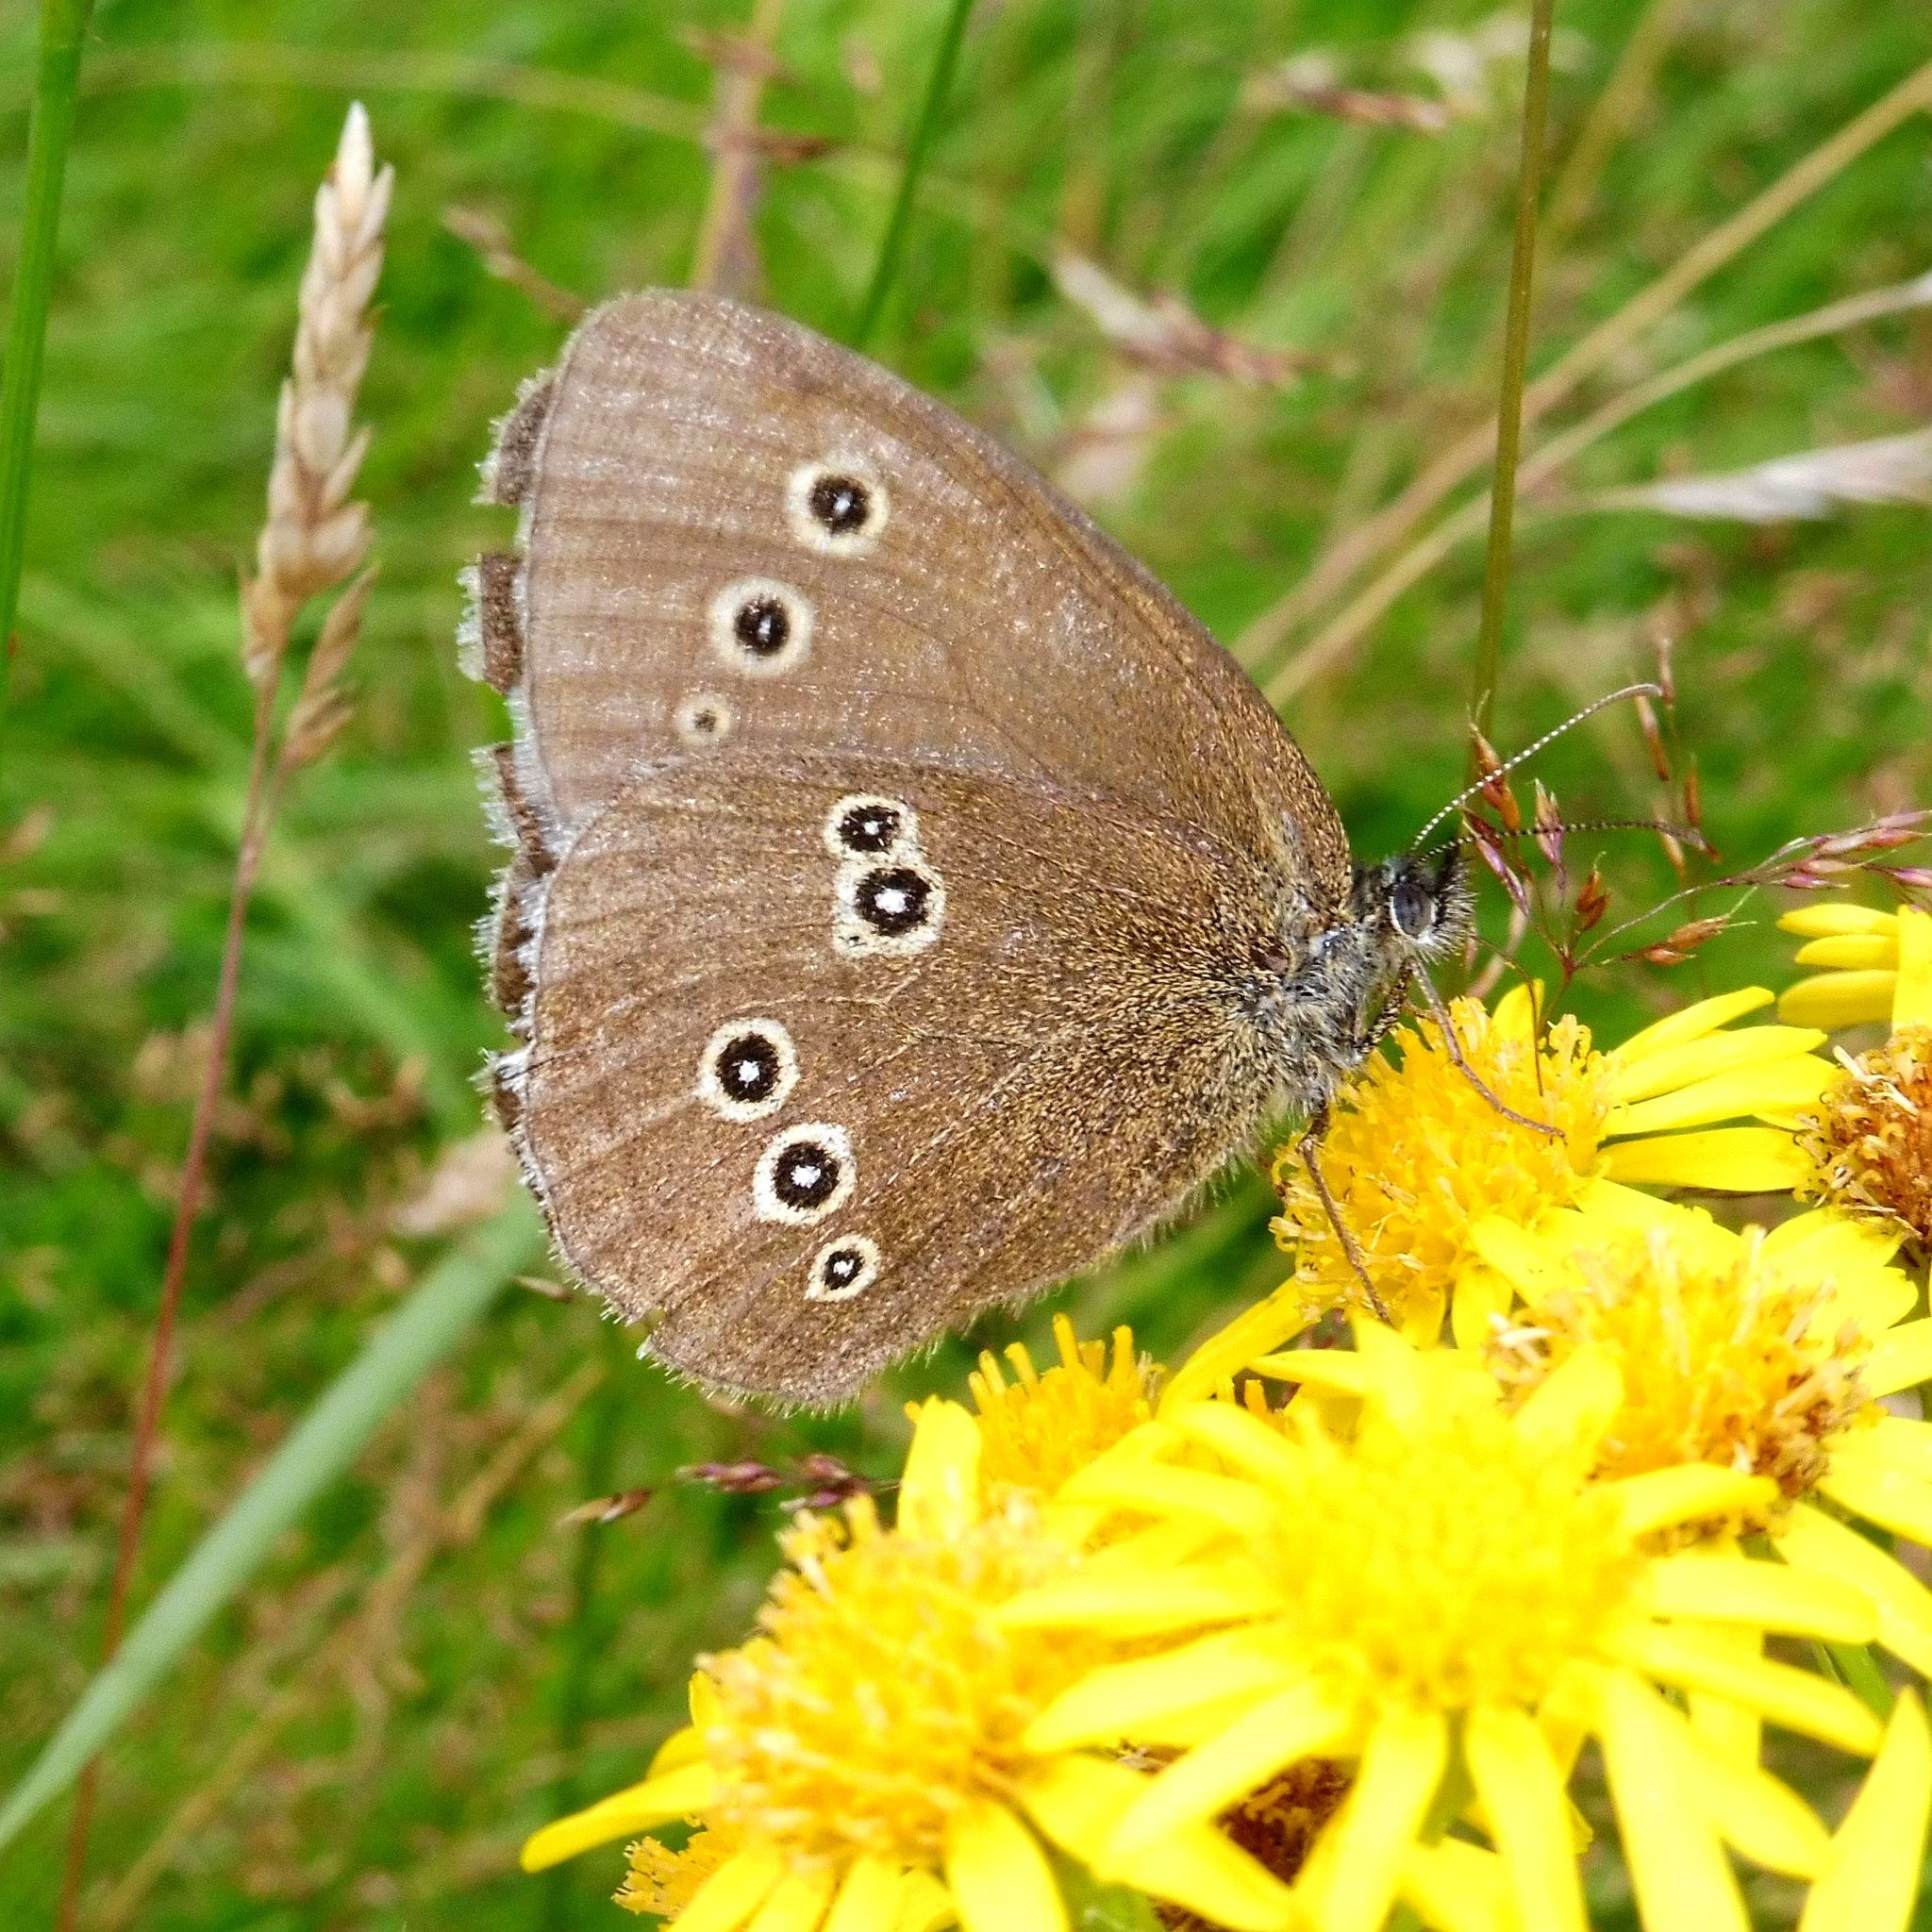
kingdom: Animalia
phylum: Arthropoda
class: Insecta
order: Lepidoptera
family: Nymphalidae
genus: Aphantopus
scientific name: Aphantopus hyperantus
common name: Ringlet
